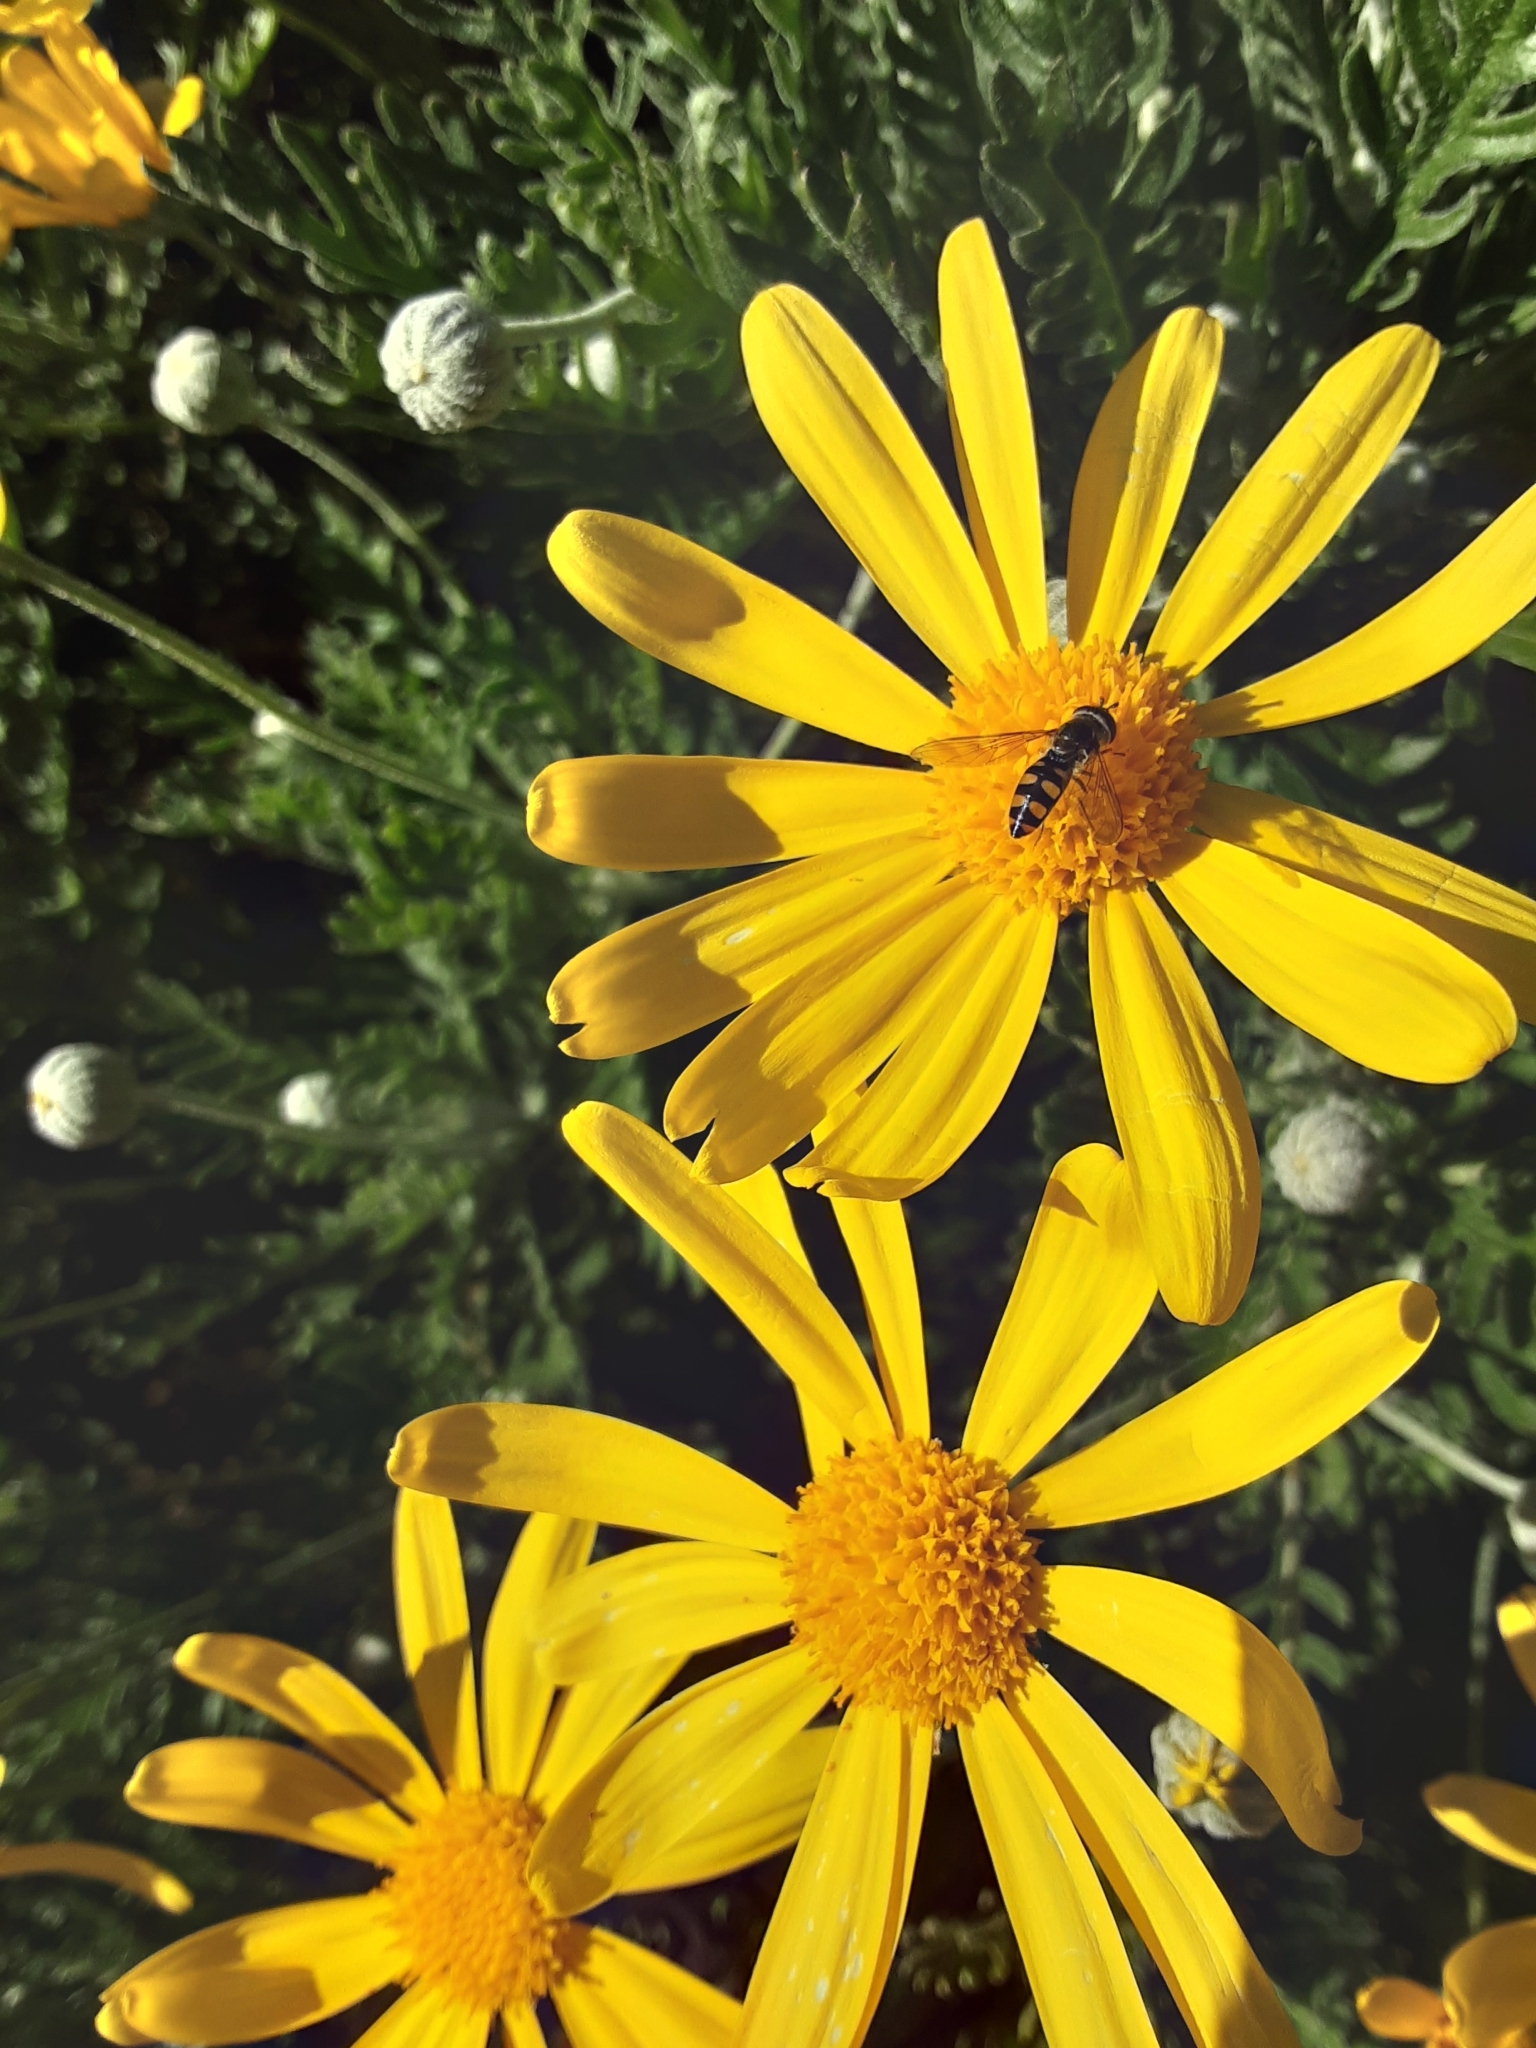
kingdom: Animalia
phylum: Arthropoda
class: Insecta
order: Diptera
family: Syrphidae
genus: Melangyna
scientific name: Melangyna viridiceps
